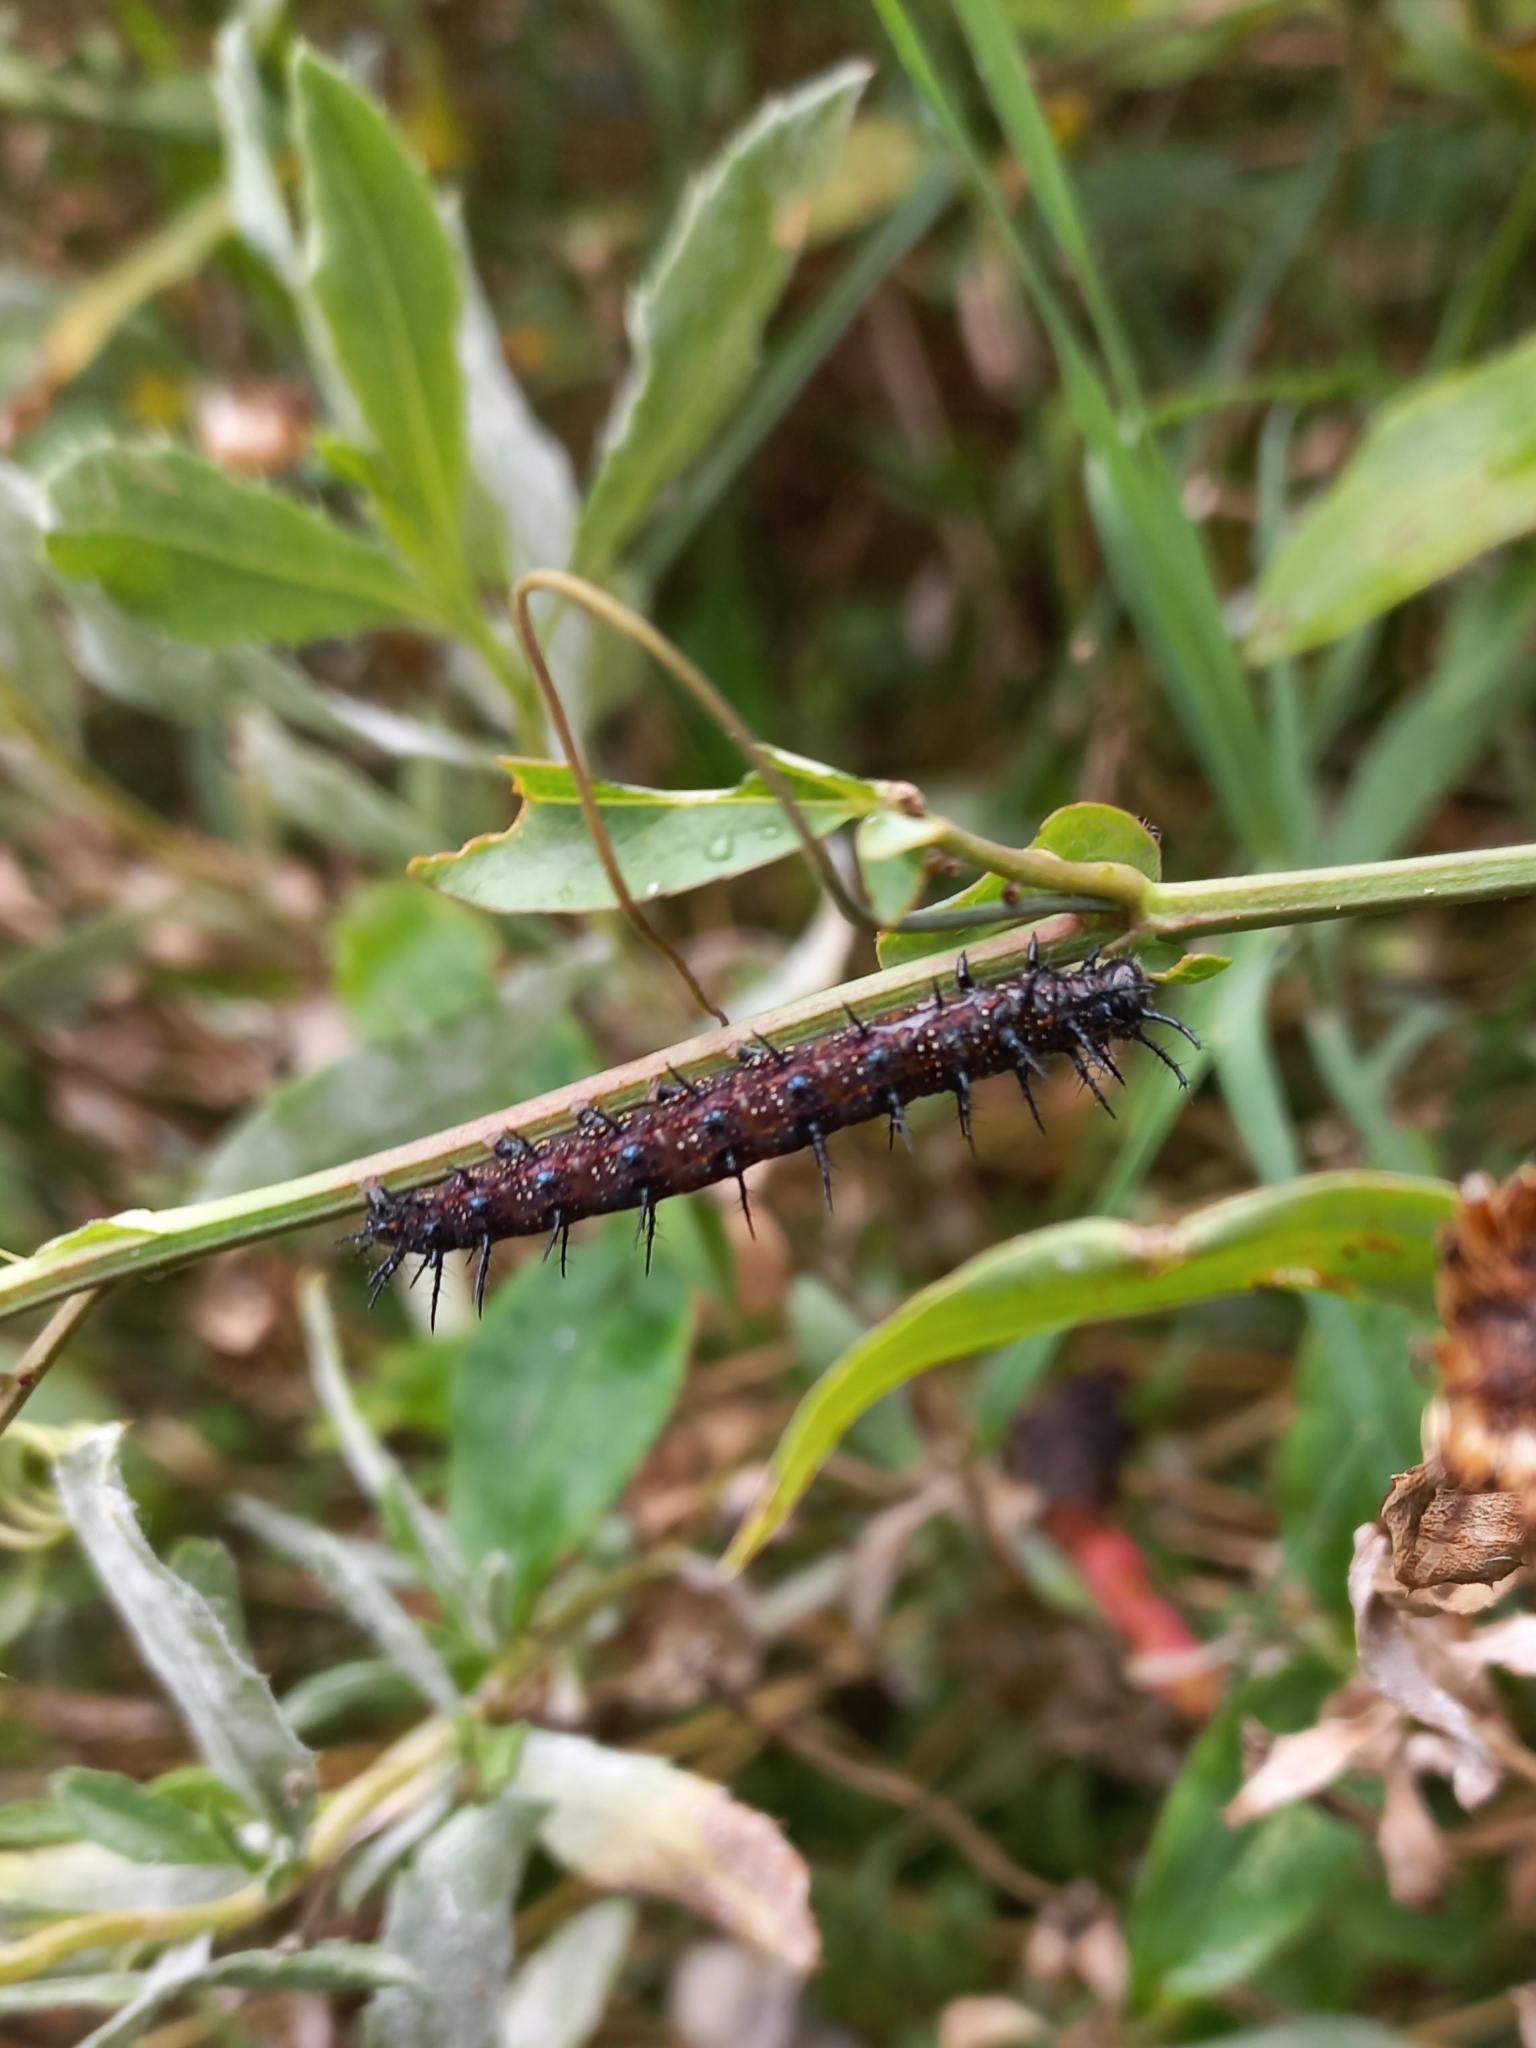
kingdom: Animalia
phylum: Arthropoda
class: Insecta
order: Lepidoptera
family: Nymphalidae
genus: Junonia
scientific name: Junonia lavinia
